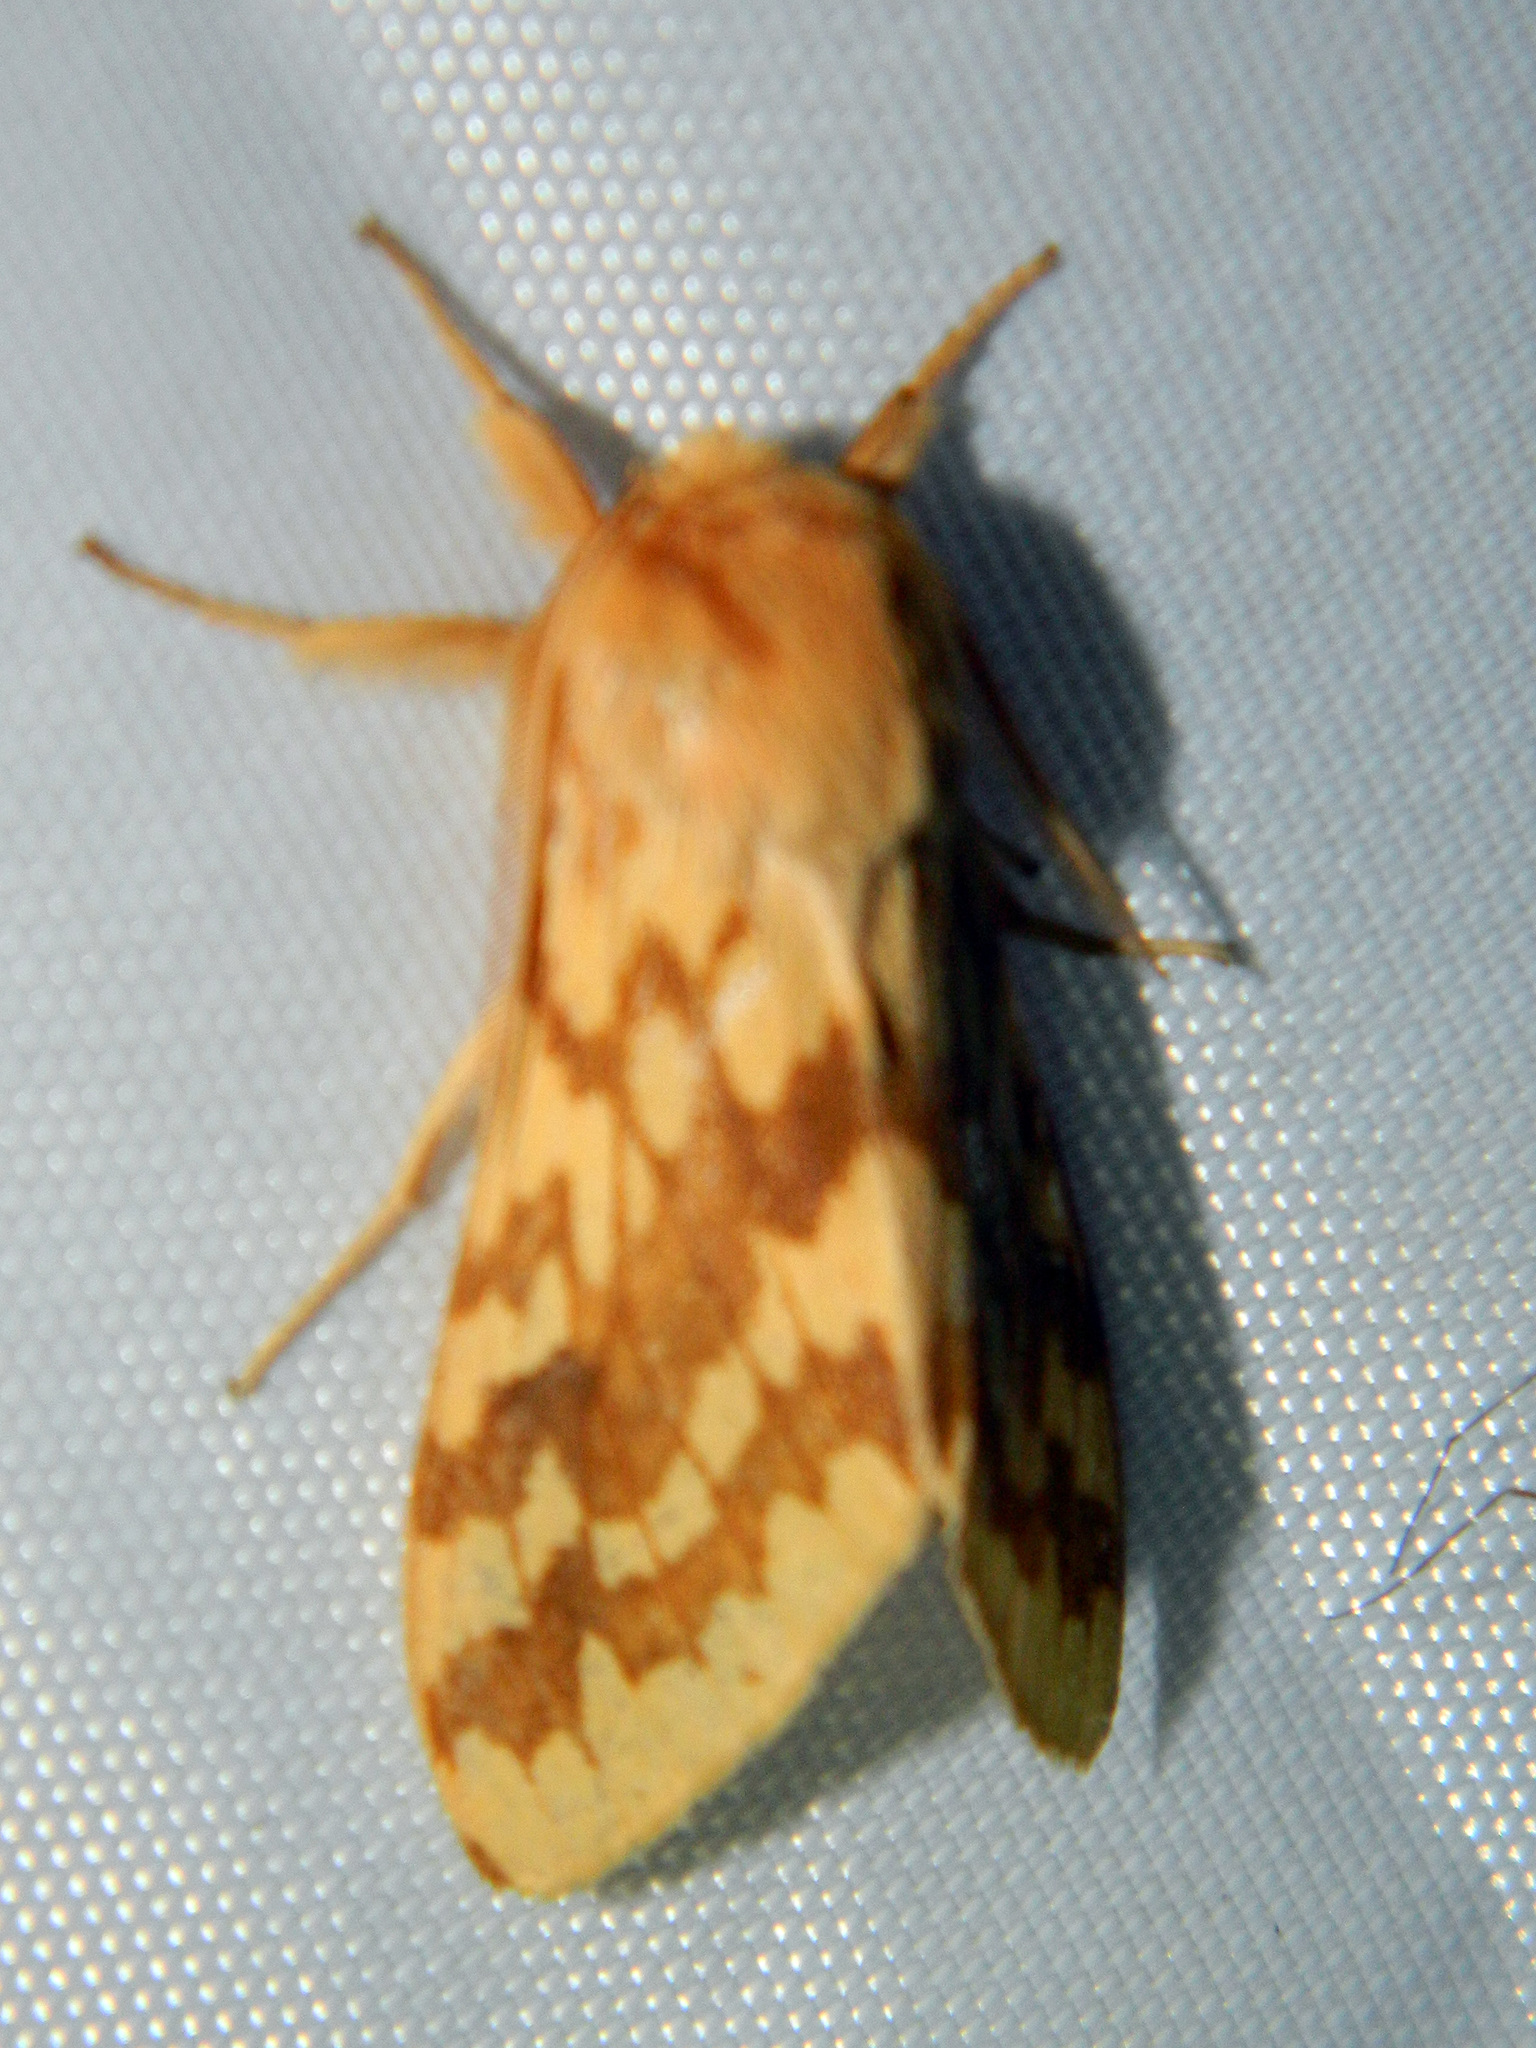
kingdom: Animalia
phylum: Arthropoda
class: Insecta
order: Lepidoptera
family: Erebidae
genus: Lophocampa
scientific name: Lophocampa maculata
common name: Spotted tussock moth
